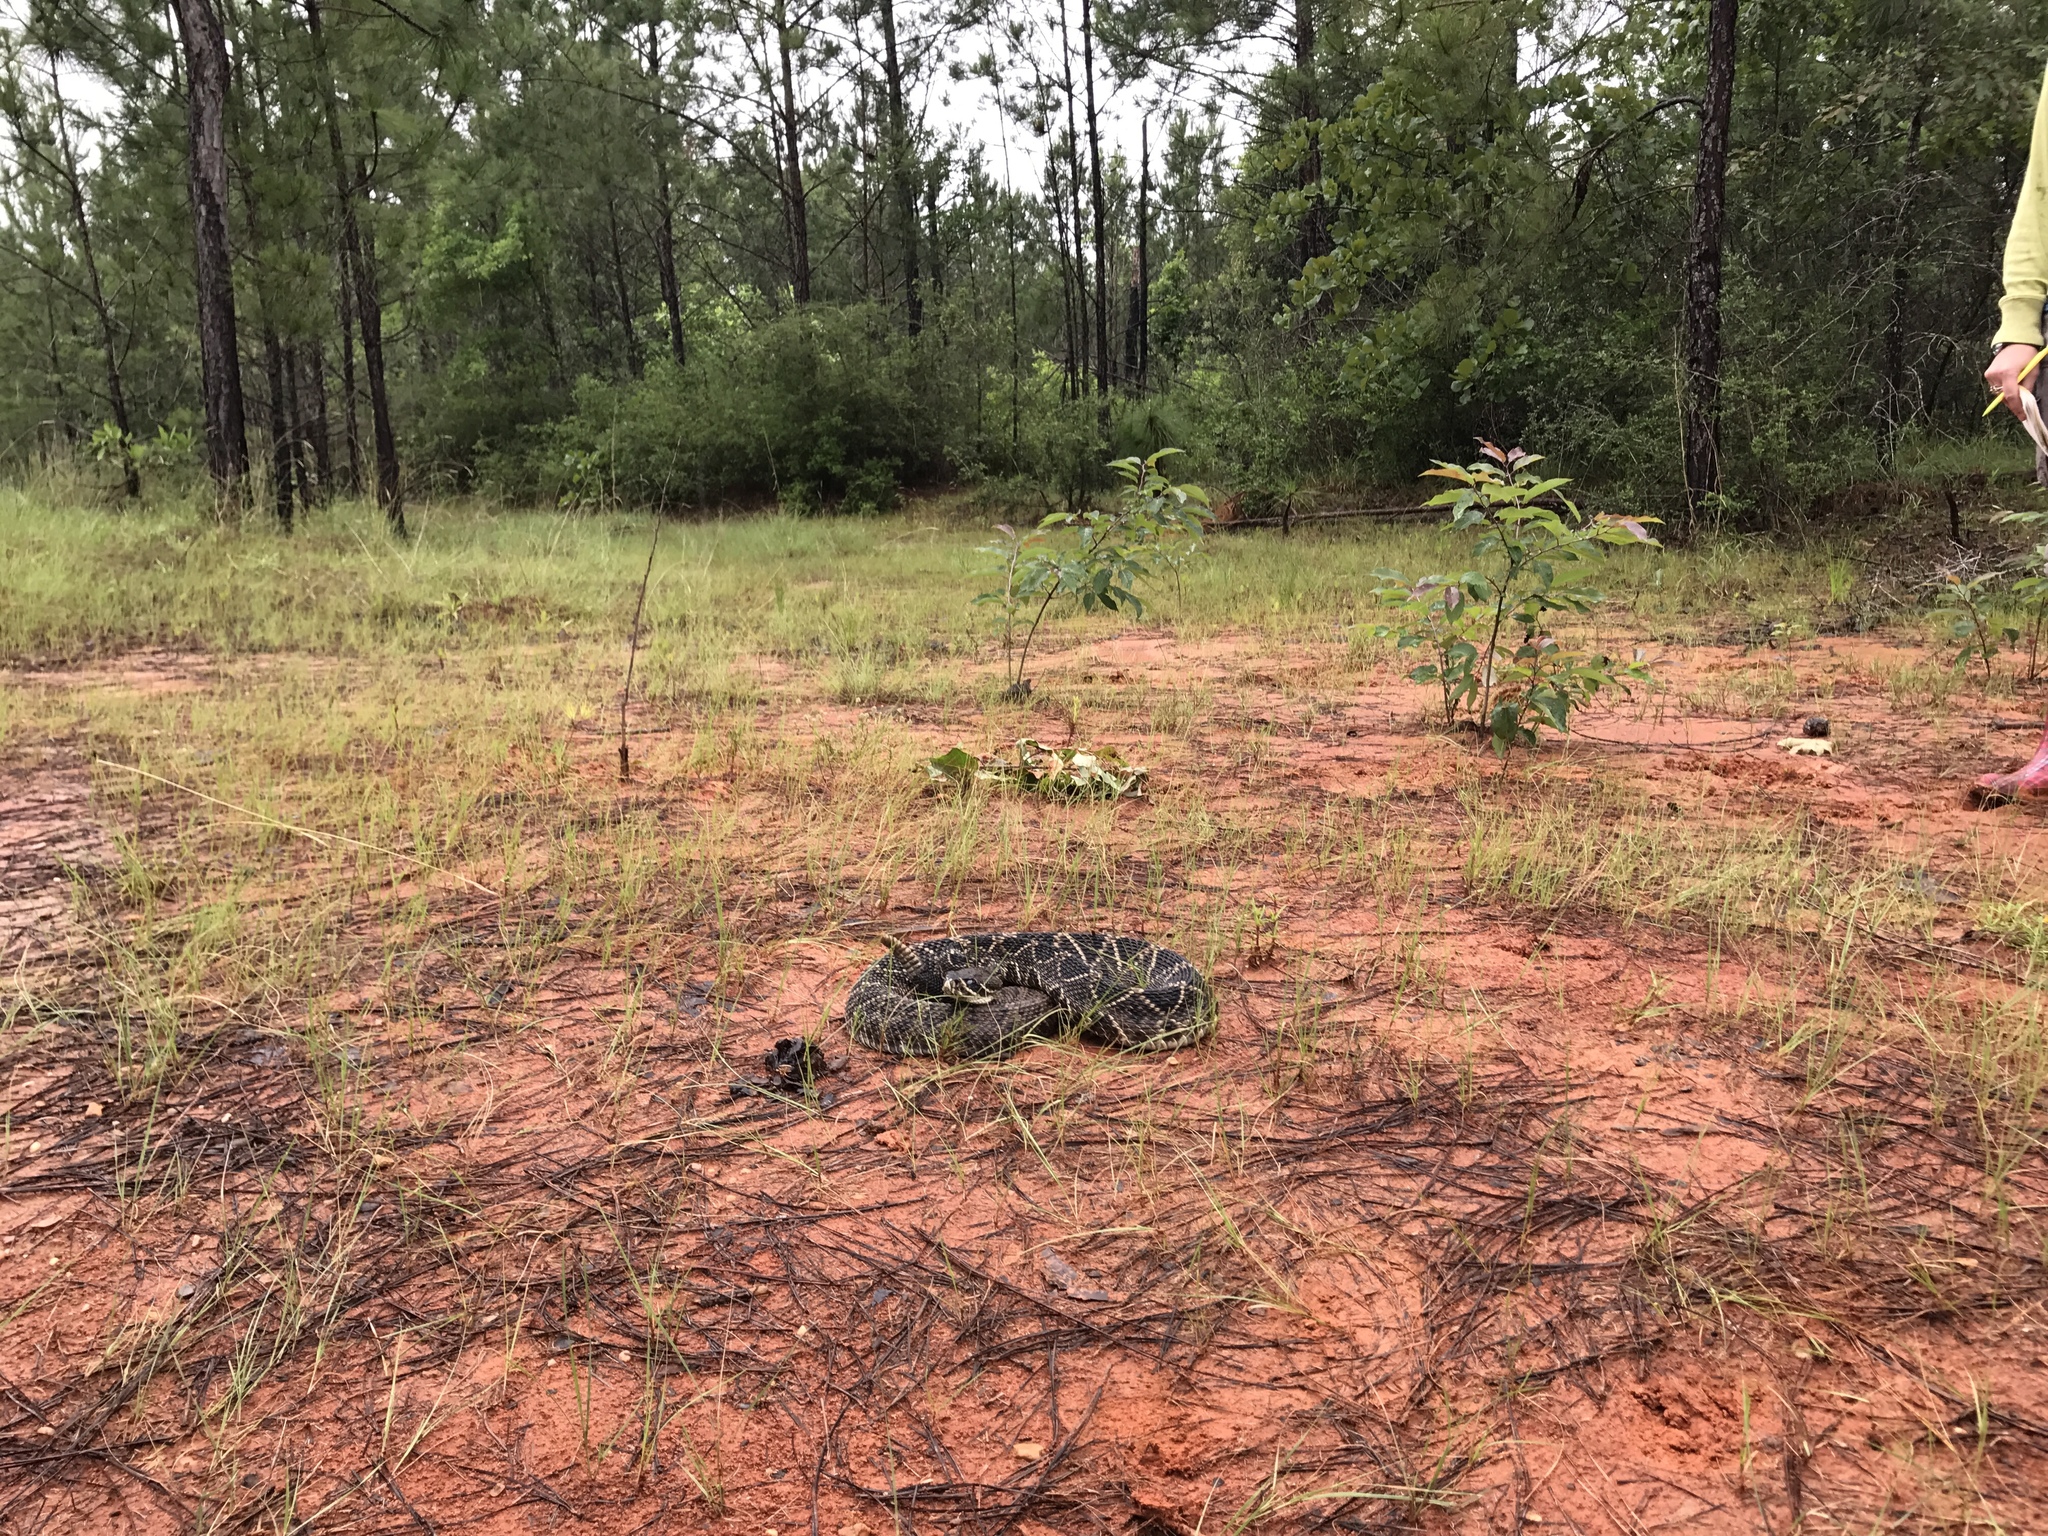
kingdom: Animalia
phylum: Chordata
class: Squamata
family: Viperidae
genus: Crotalus
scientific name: Crotalus adamanteus
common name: Eastern diamondback rattlesnake
